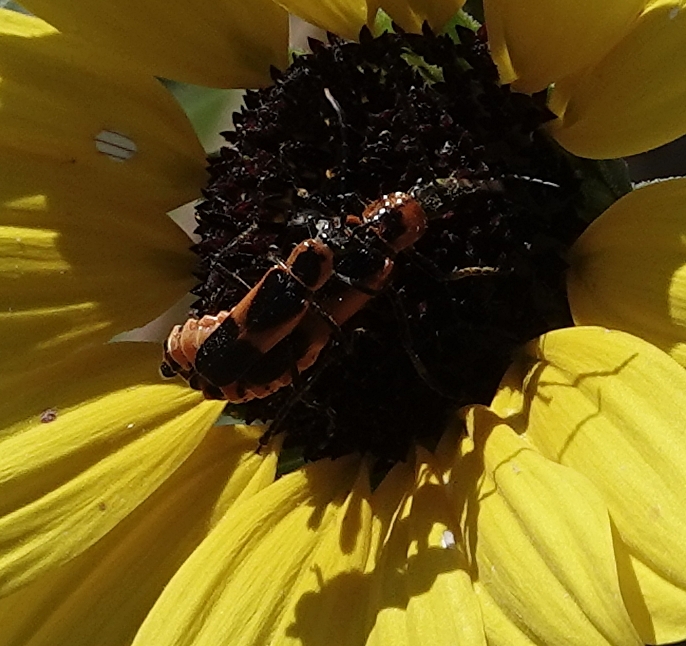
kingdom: Animalia
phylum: Arthropoda
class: Insecta
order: Coleoptera
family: Cantharidae
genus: Chauliognathus
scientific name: Chauliognathus basalis
